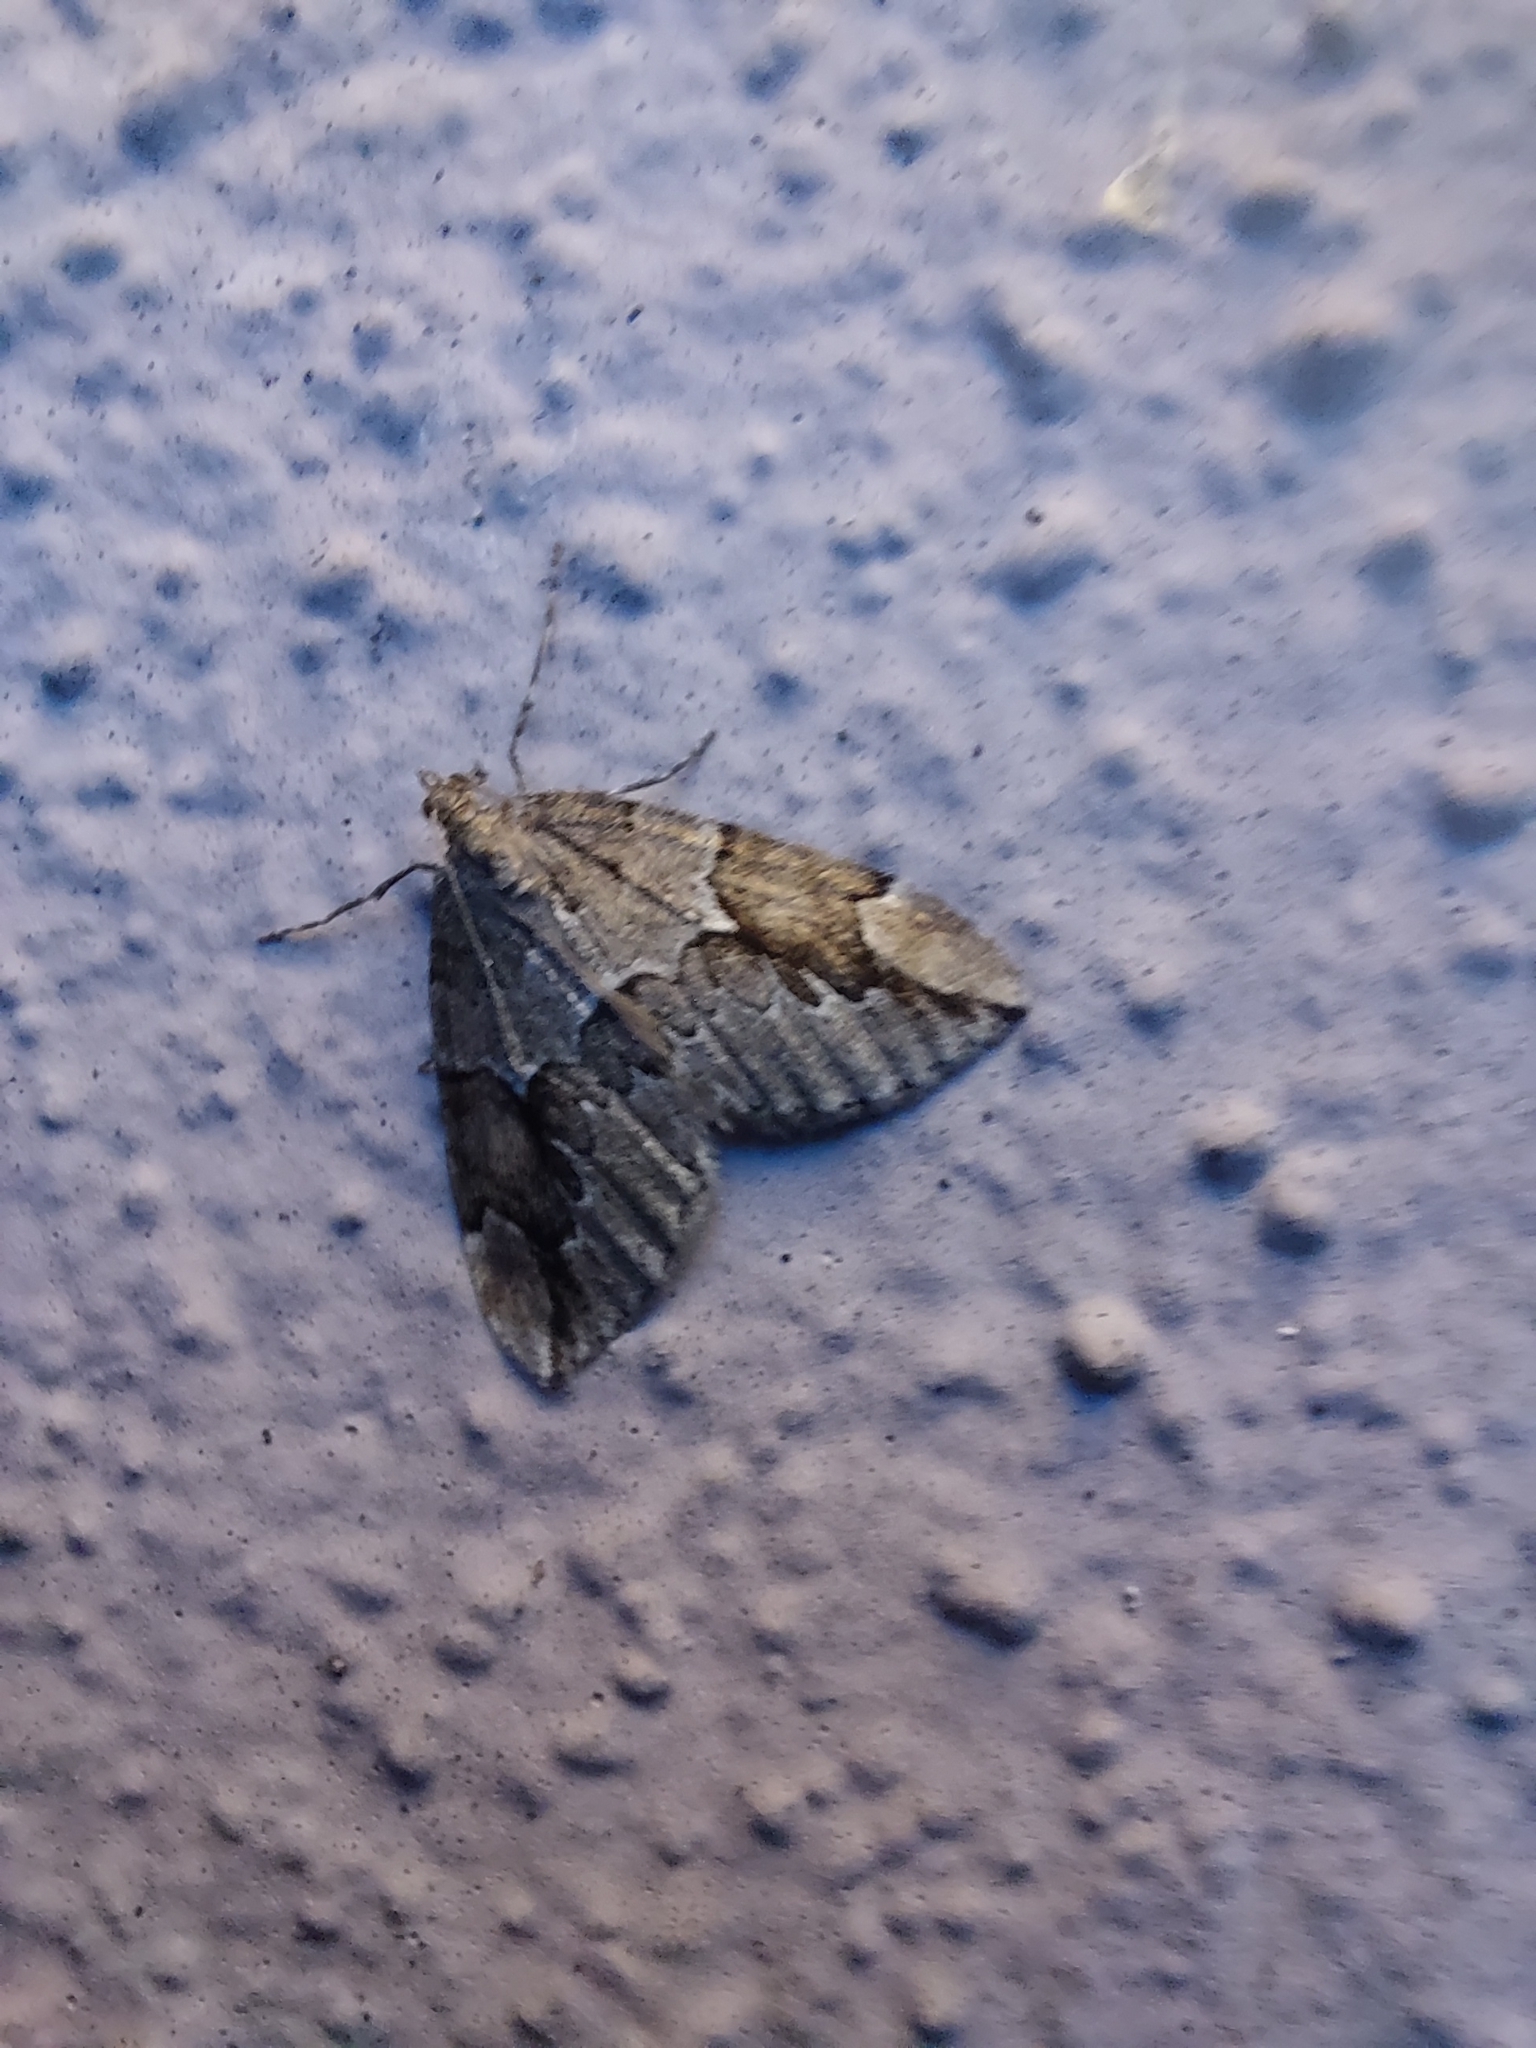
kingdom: Animalia
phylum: Arthropoda
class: Insecta
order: Lepidoptera
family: Geometridae
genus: Thera
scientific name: Thera juniperata
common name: Juniper carpet
